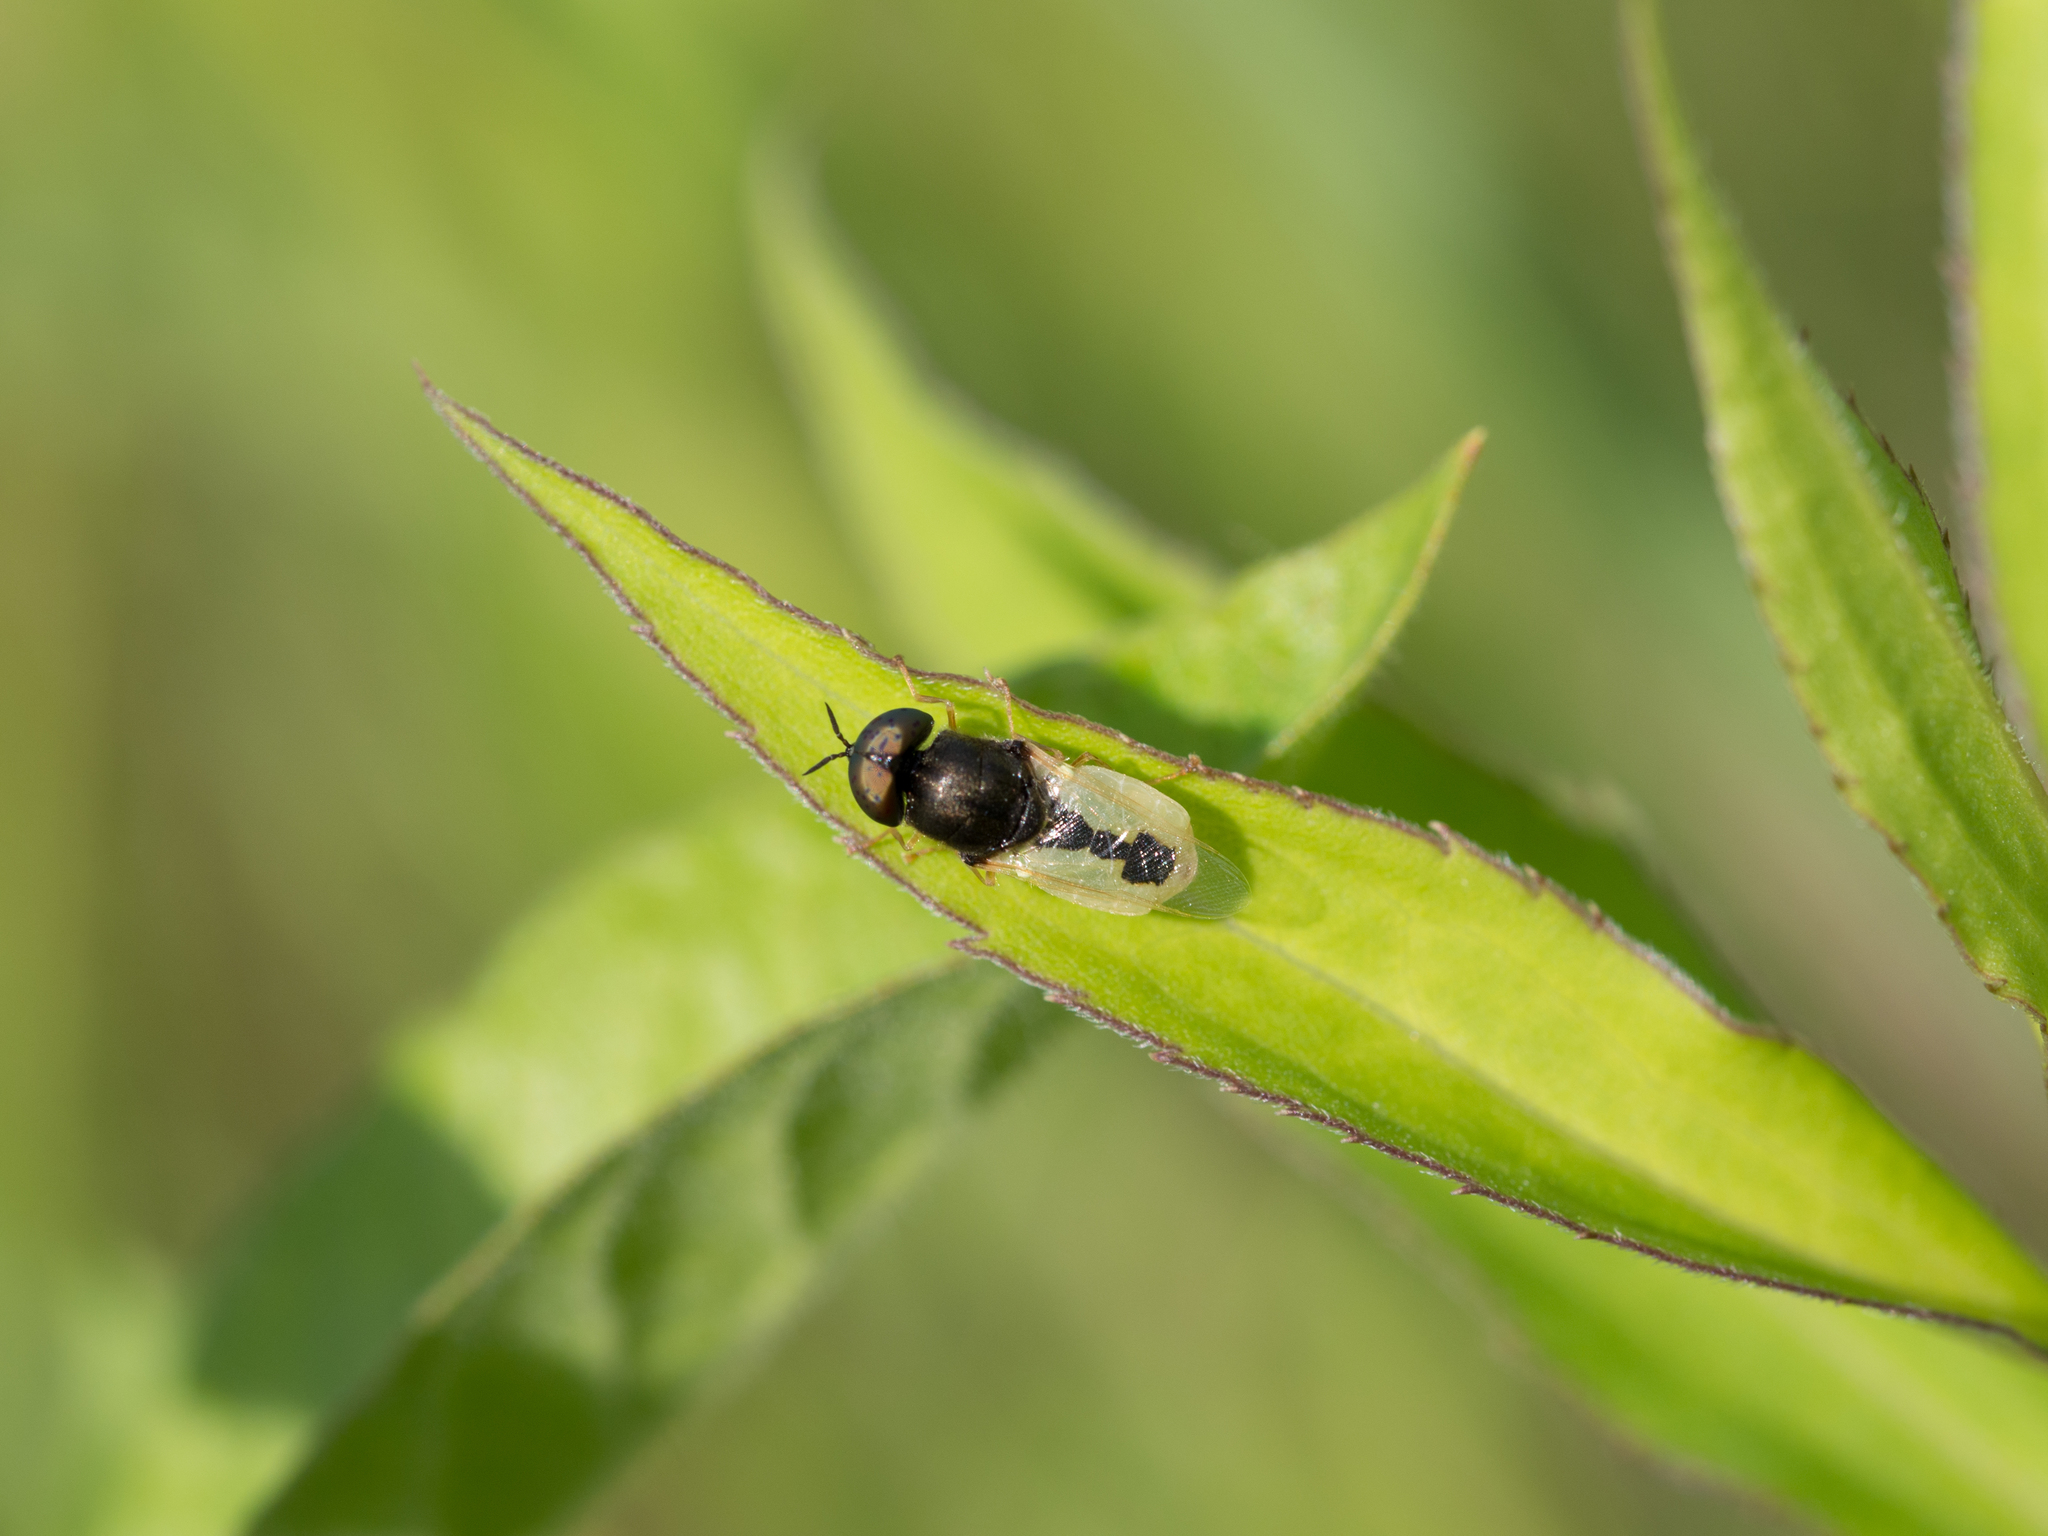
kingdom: Animalia
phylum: Arthropoda
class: Insecta
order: Diptera
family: Stratiomyidae
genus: Oplodontha
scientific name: Oplodontha viridula
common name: Common green colonel
